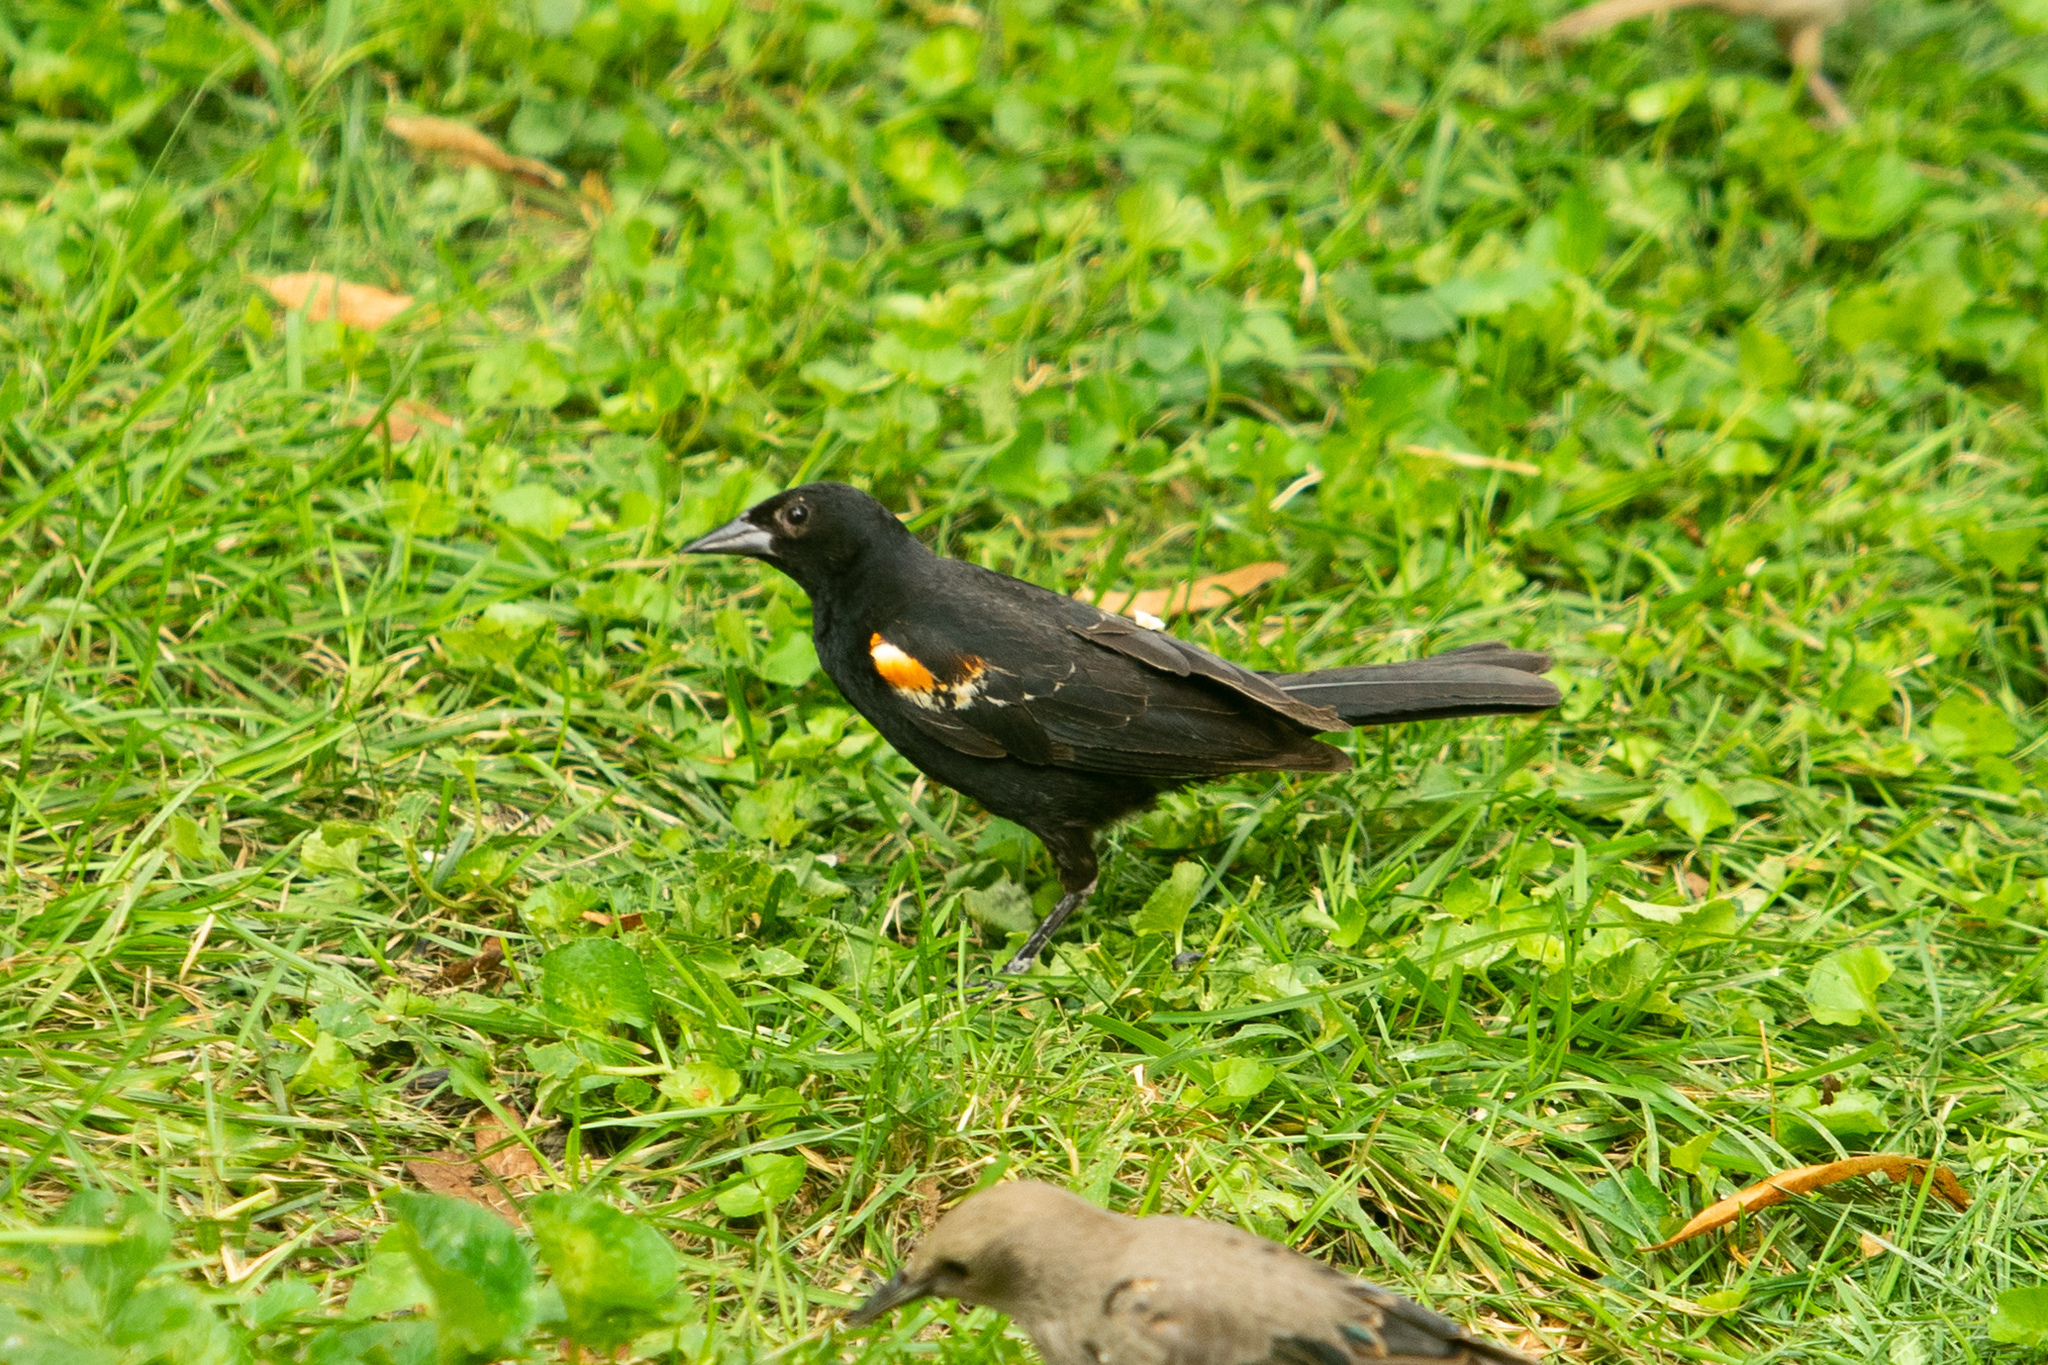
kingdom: Animalia
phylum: Chordata
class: Aves
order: Passeriformes
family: Icteridae
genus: Agelaius
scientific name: Agelaius phoeniceus
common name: Red-winged blackbird
